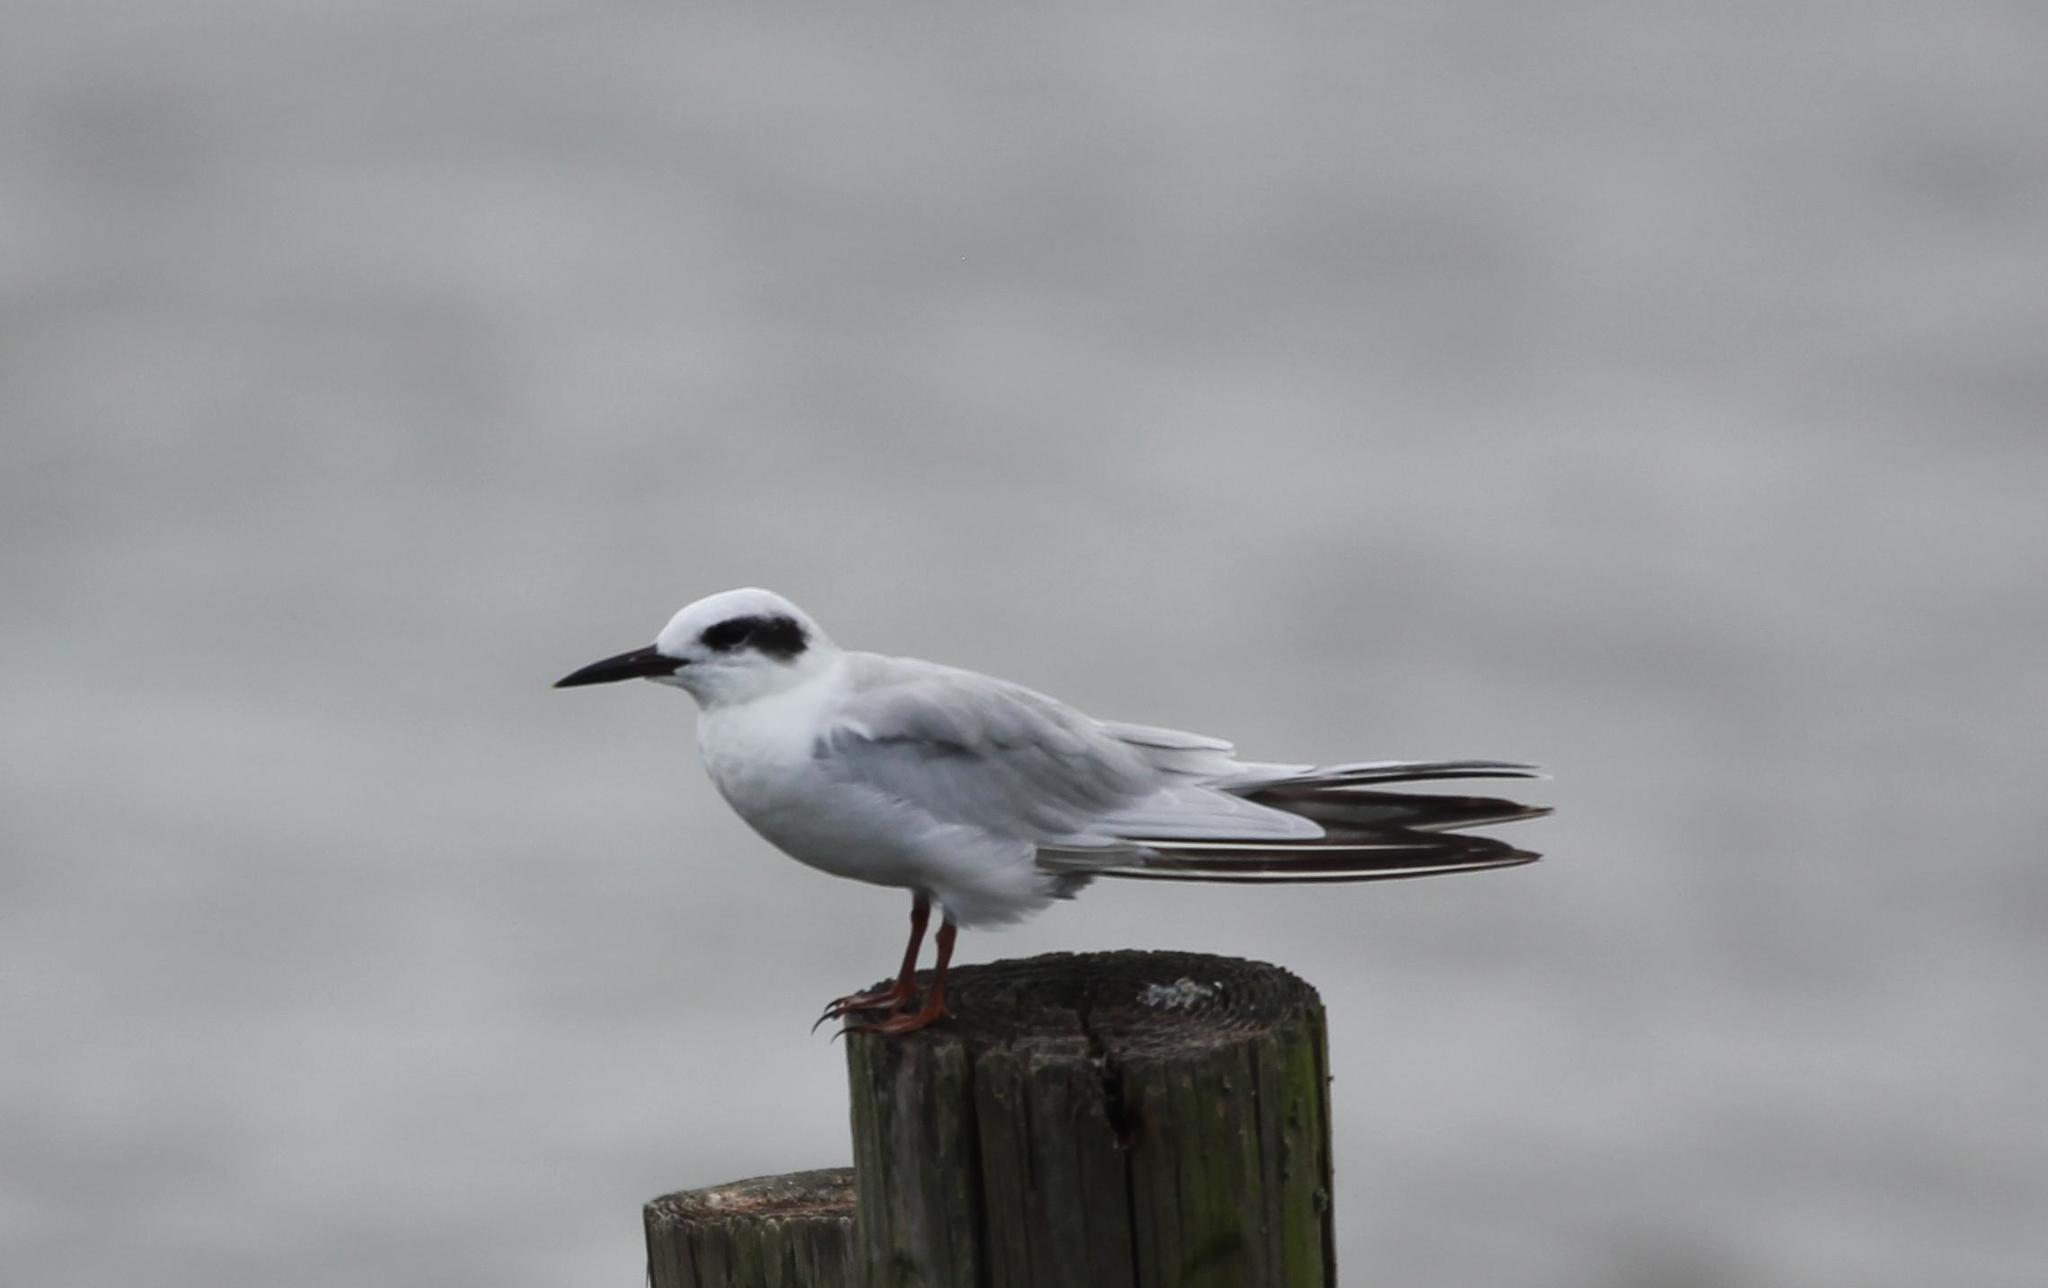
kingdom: Animalia
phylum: Chordata
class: Aves
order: Charadriiformes
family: Laridae
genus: Sterna
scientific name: Sterna forsteri
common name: Forster's tern
